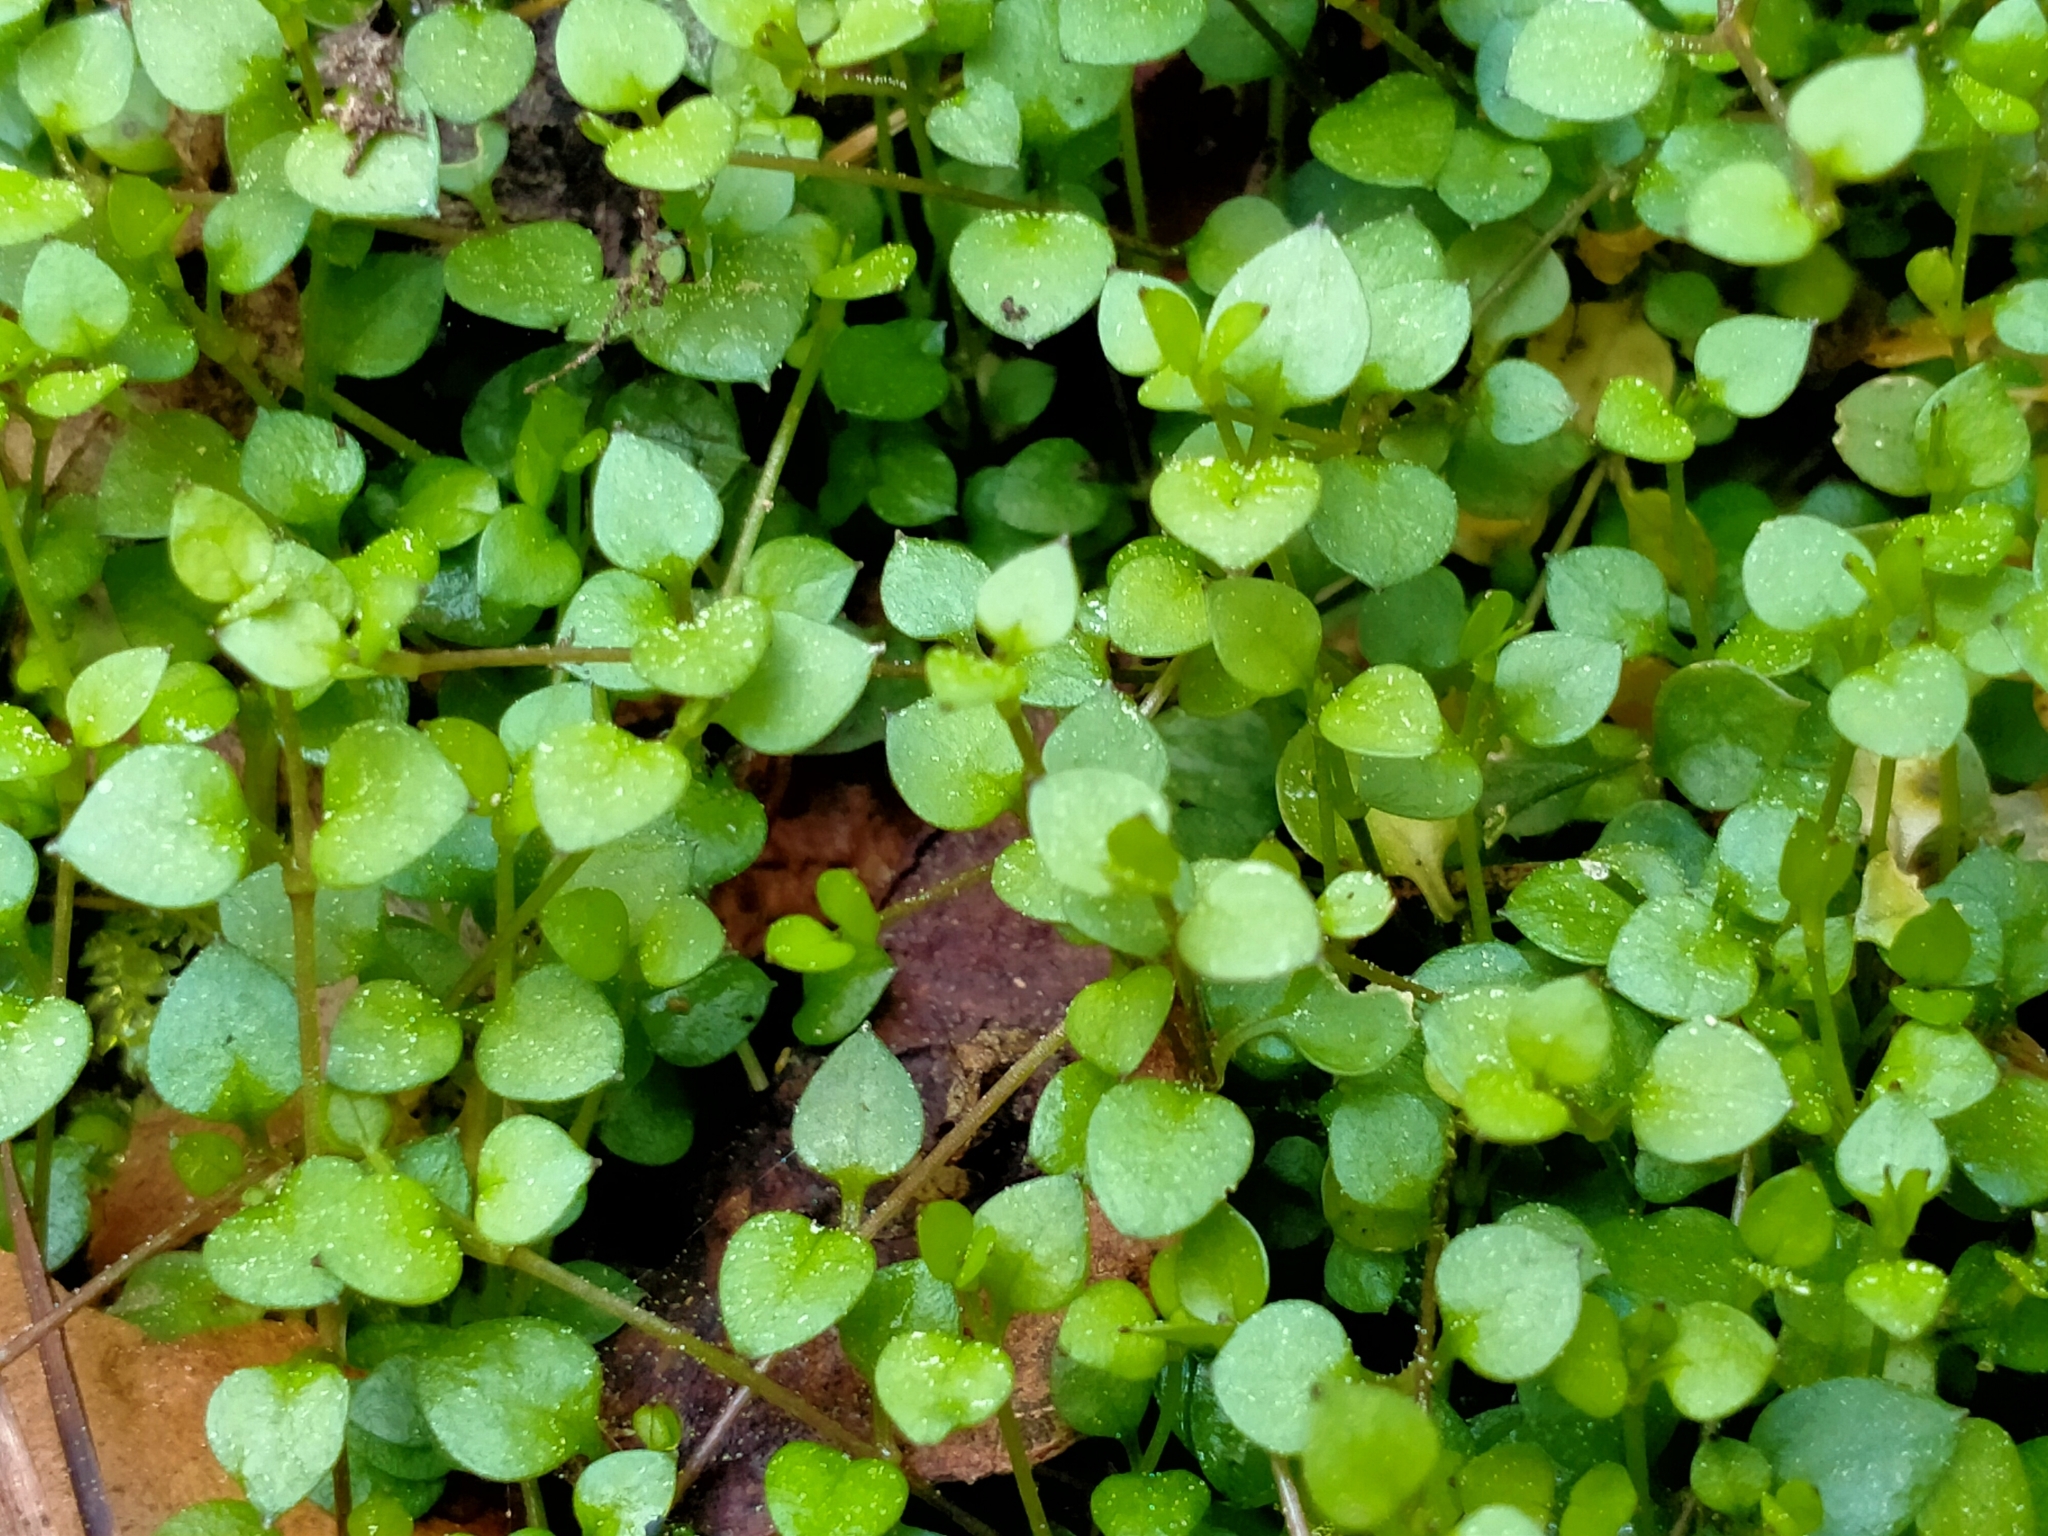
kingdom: Plantae
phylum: Tracheophyta
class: Magnoliopsida
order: Caryophyllales
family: Caryophyllaceae
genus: Stellaria
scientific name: Stellaria parviflora
